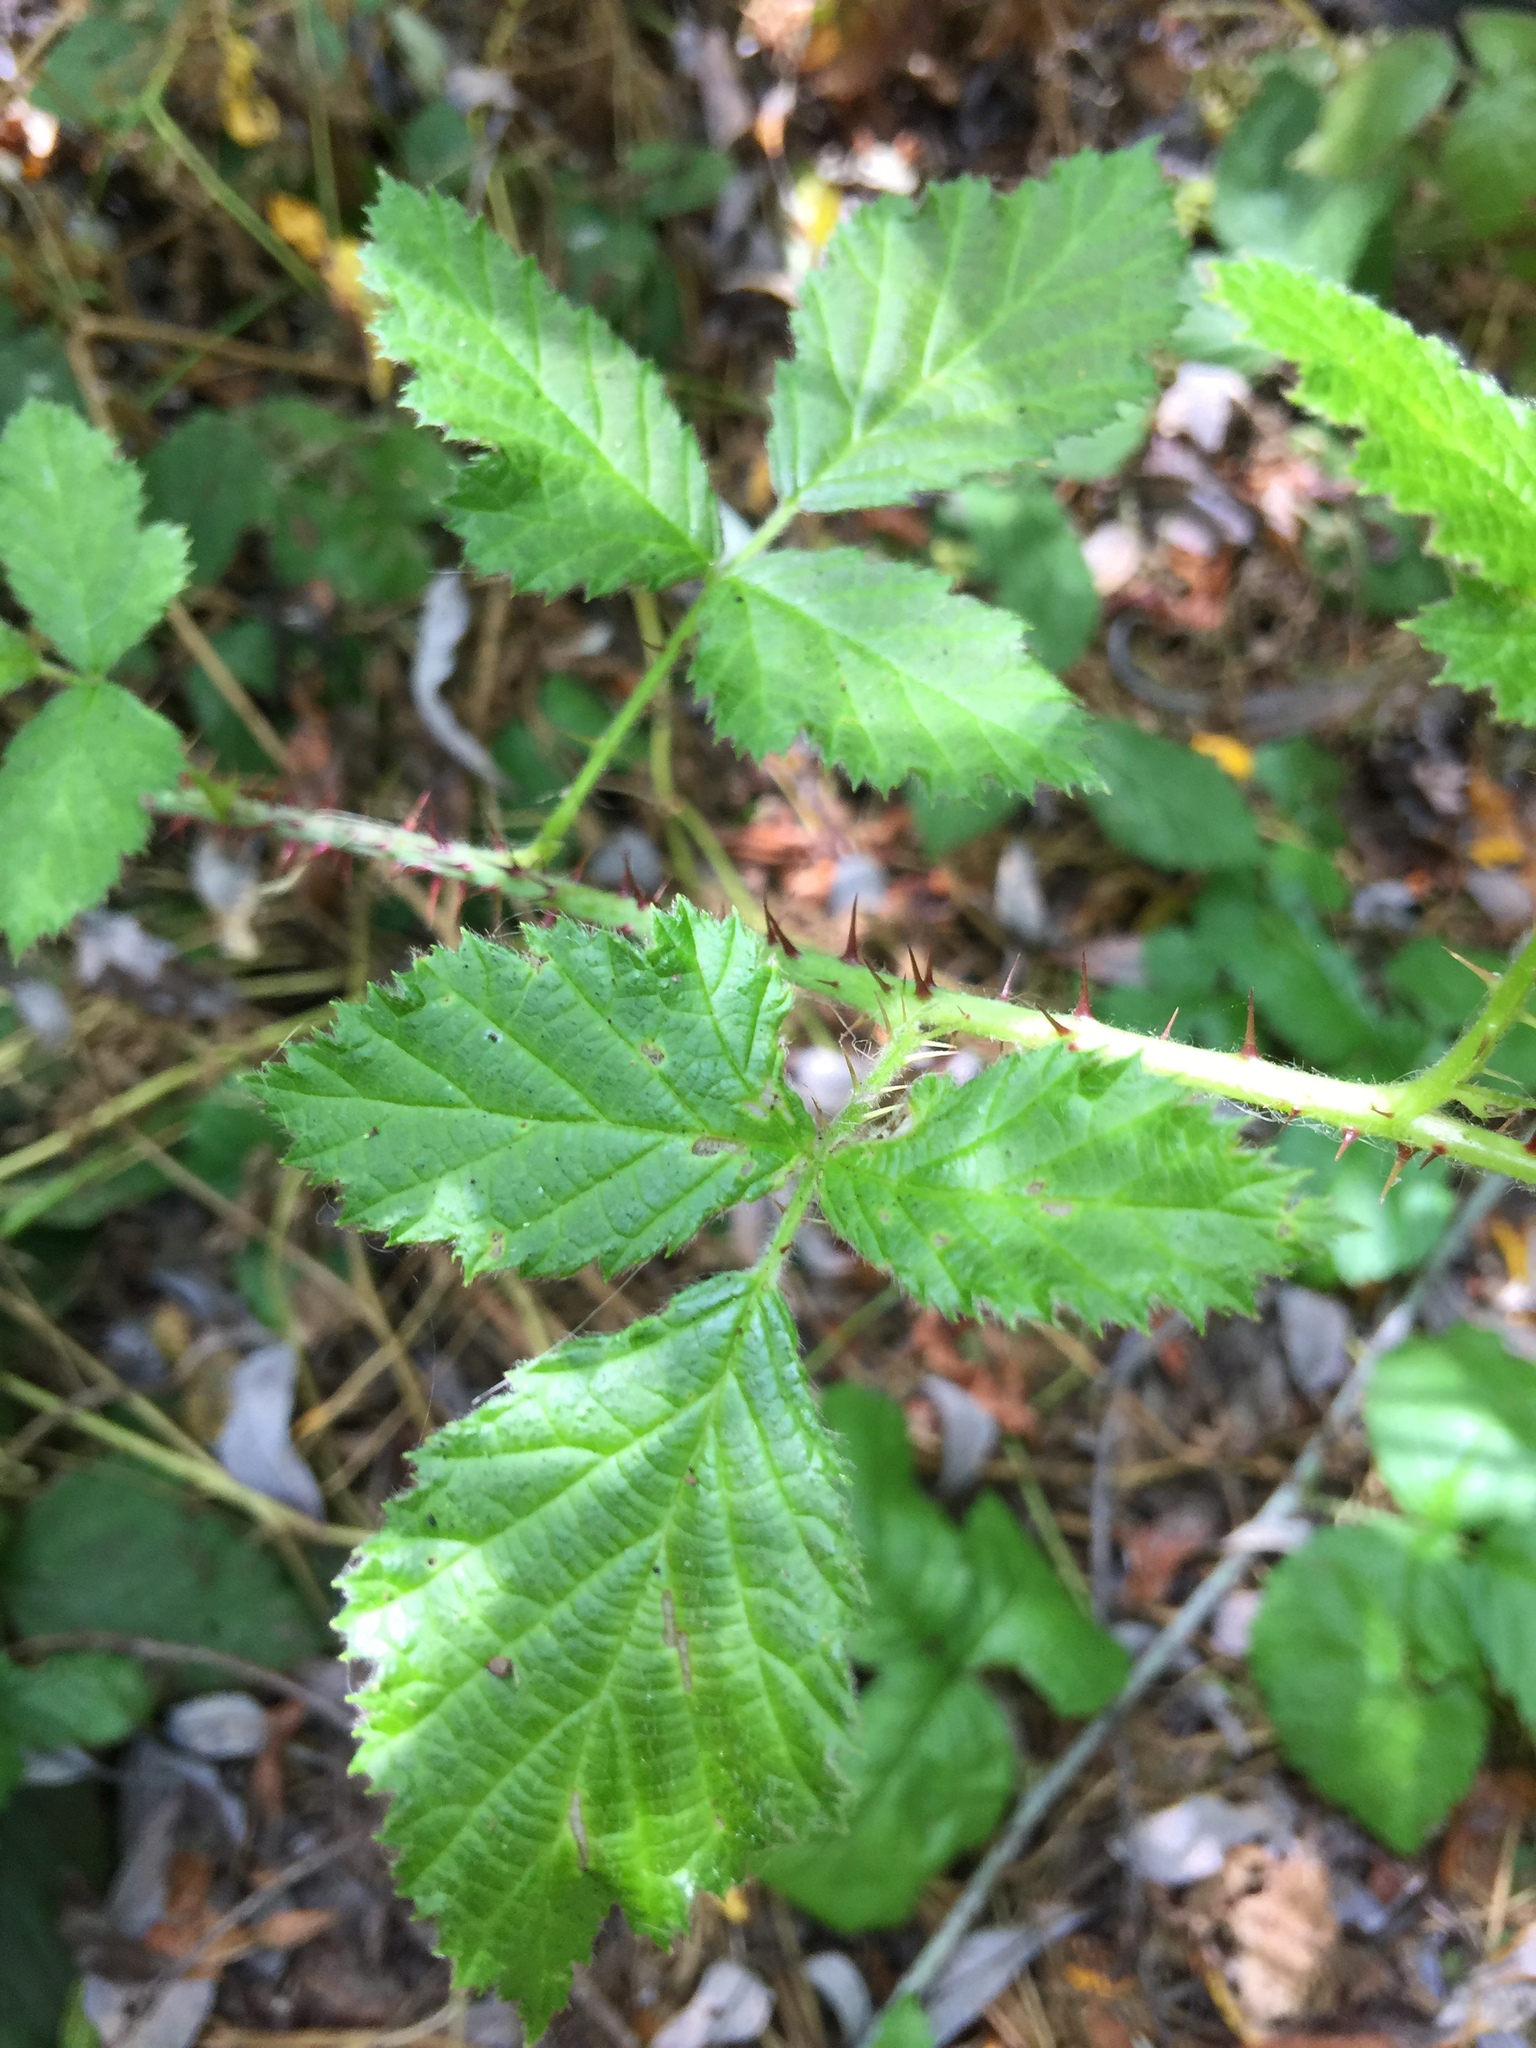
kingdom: Plantae
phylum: Tracheophyta
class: Magnoliopsida
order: Rosales
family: Rosaceae
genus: Rubus
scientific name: Rubus ursinus
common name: Pacific blackberry
